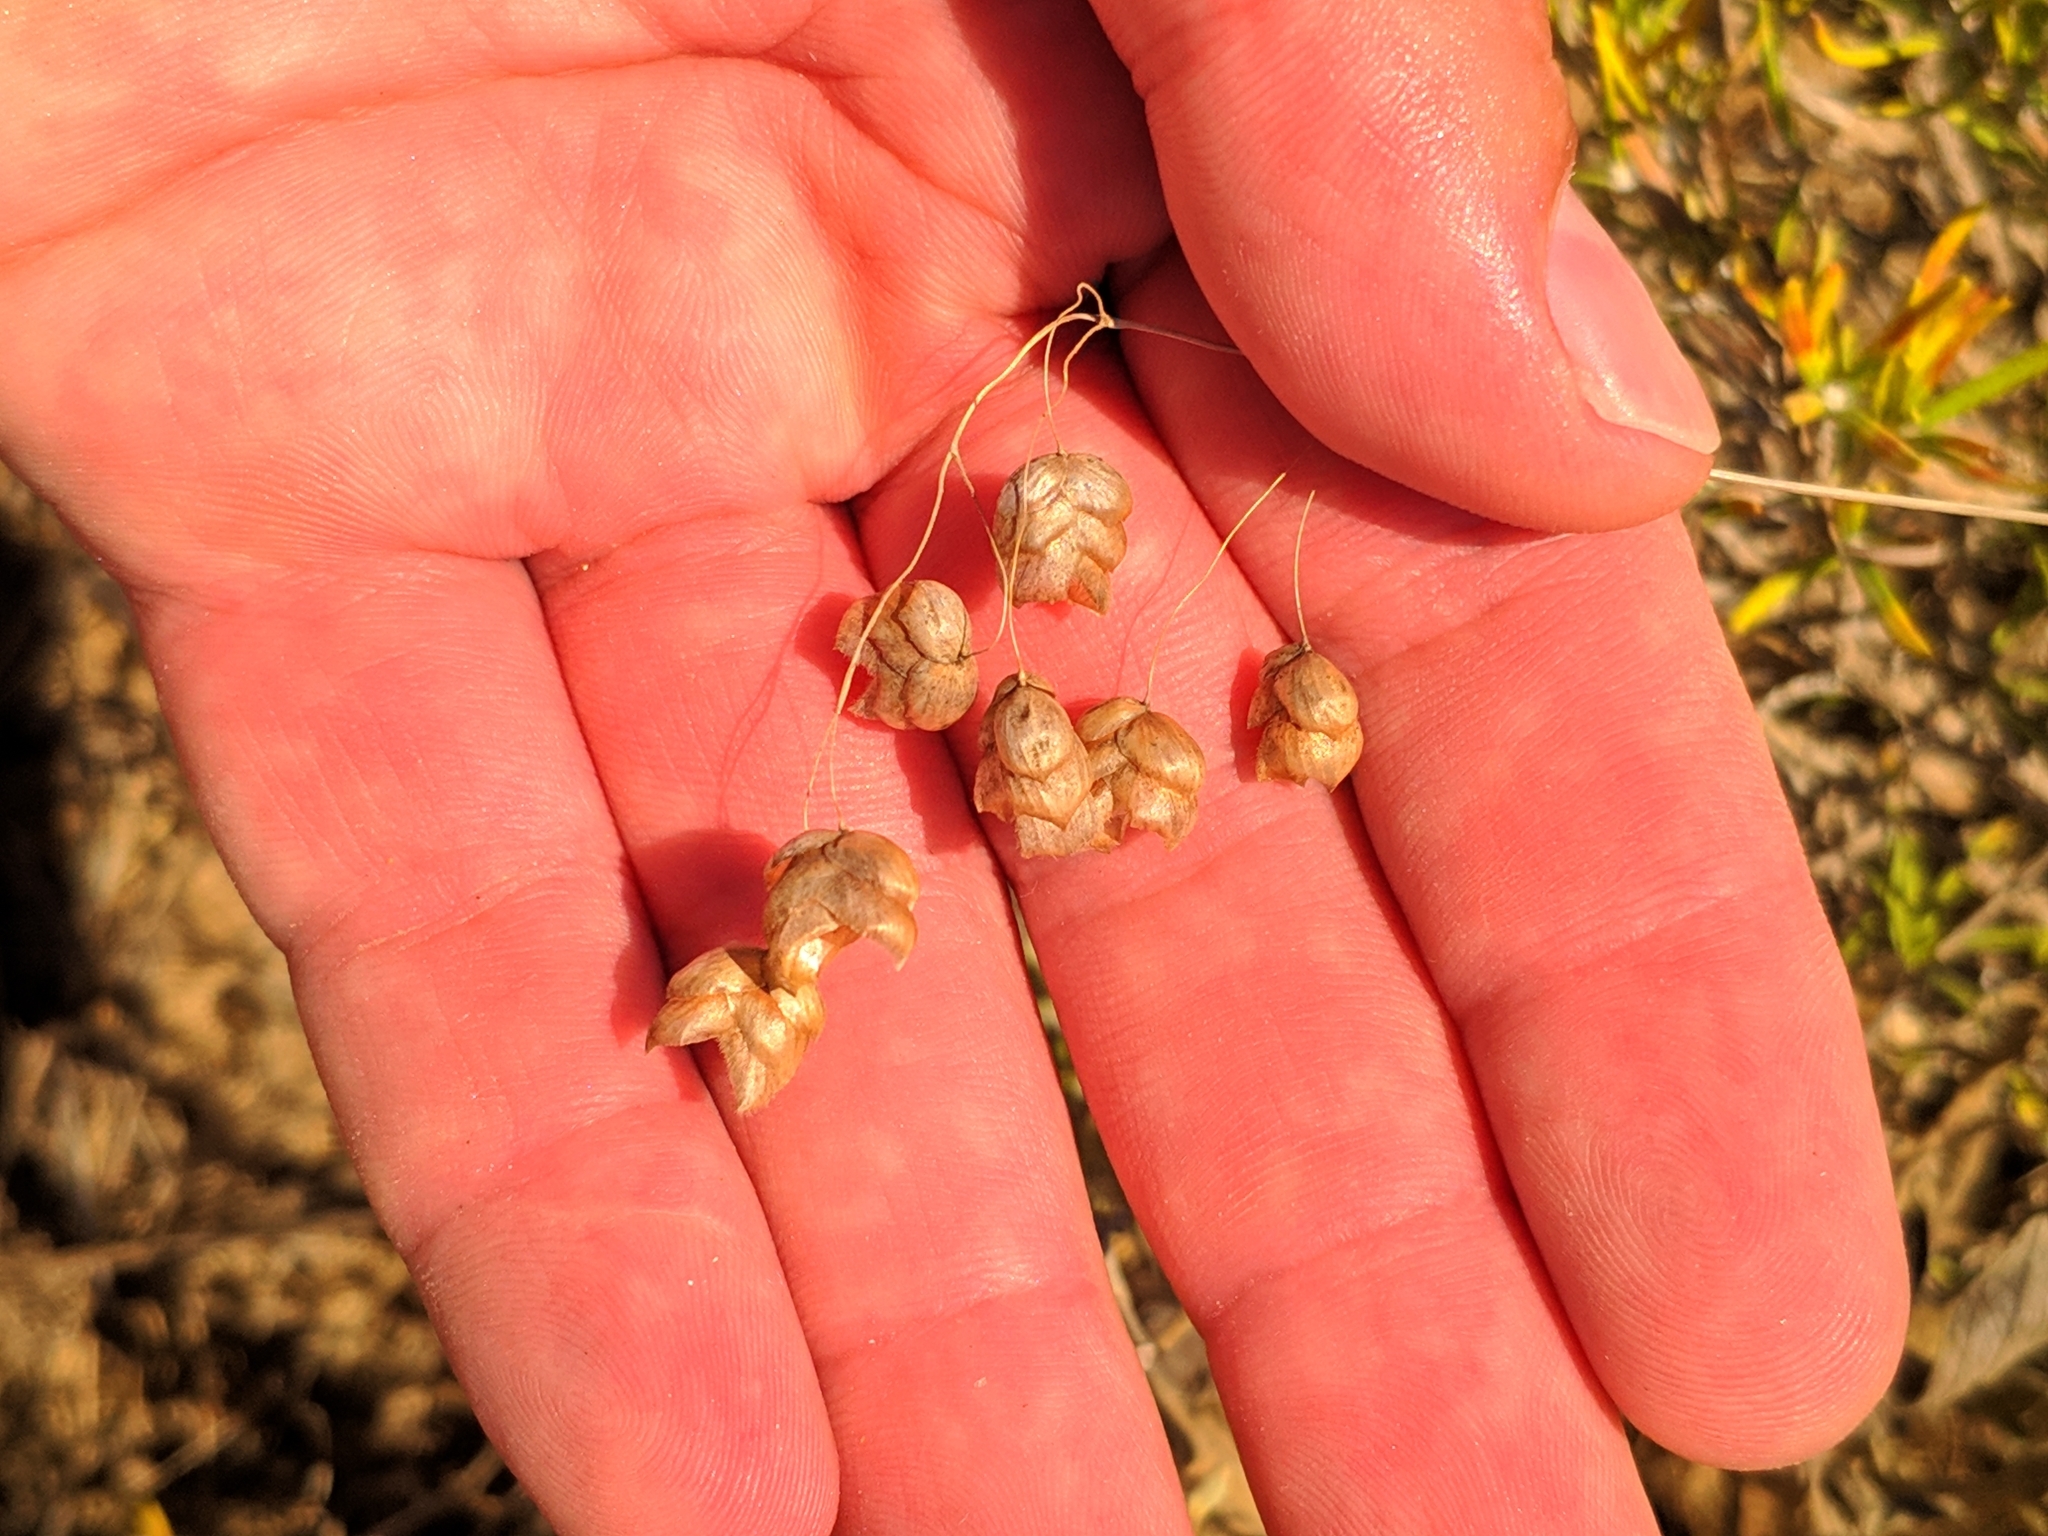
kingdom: Plantae
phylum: Tracheophyta
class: Liliopsida
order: Poales
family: Poaceae
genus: Briza
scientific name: Briza maxima
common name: Big quakinggrass
